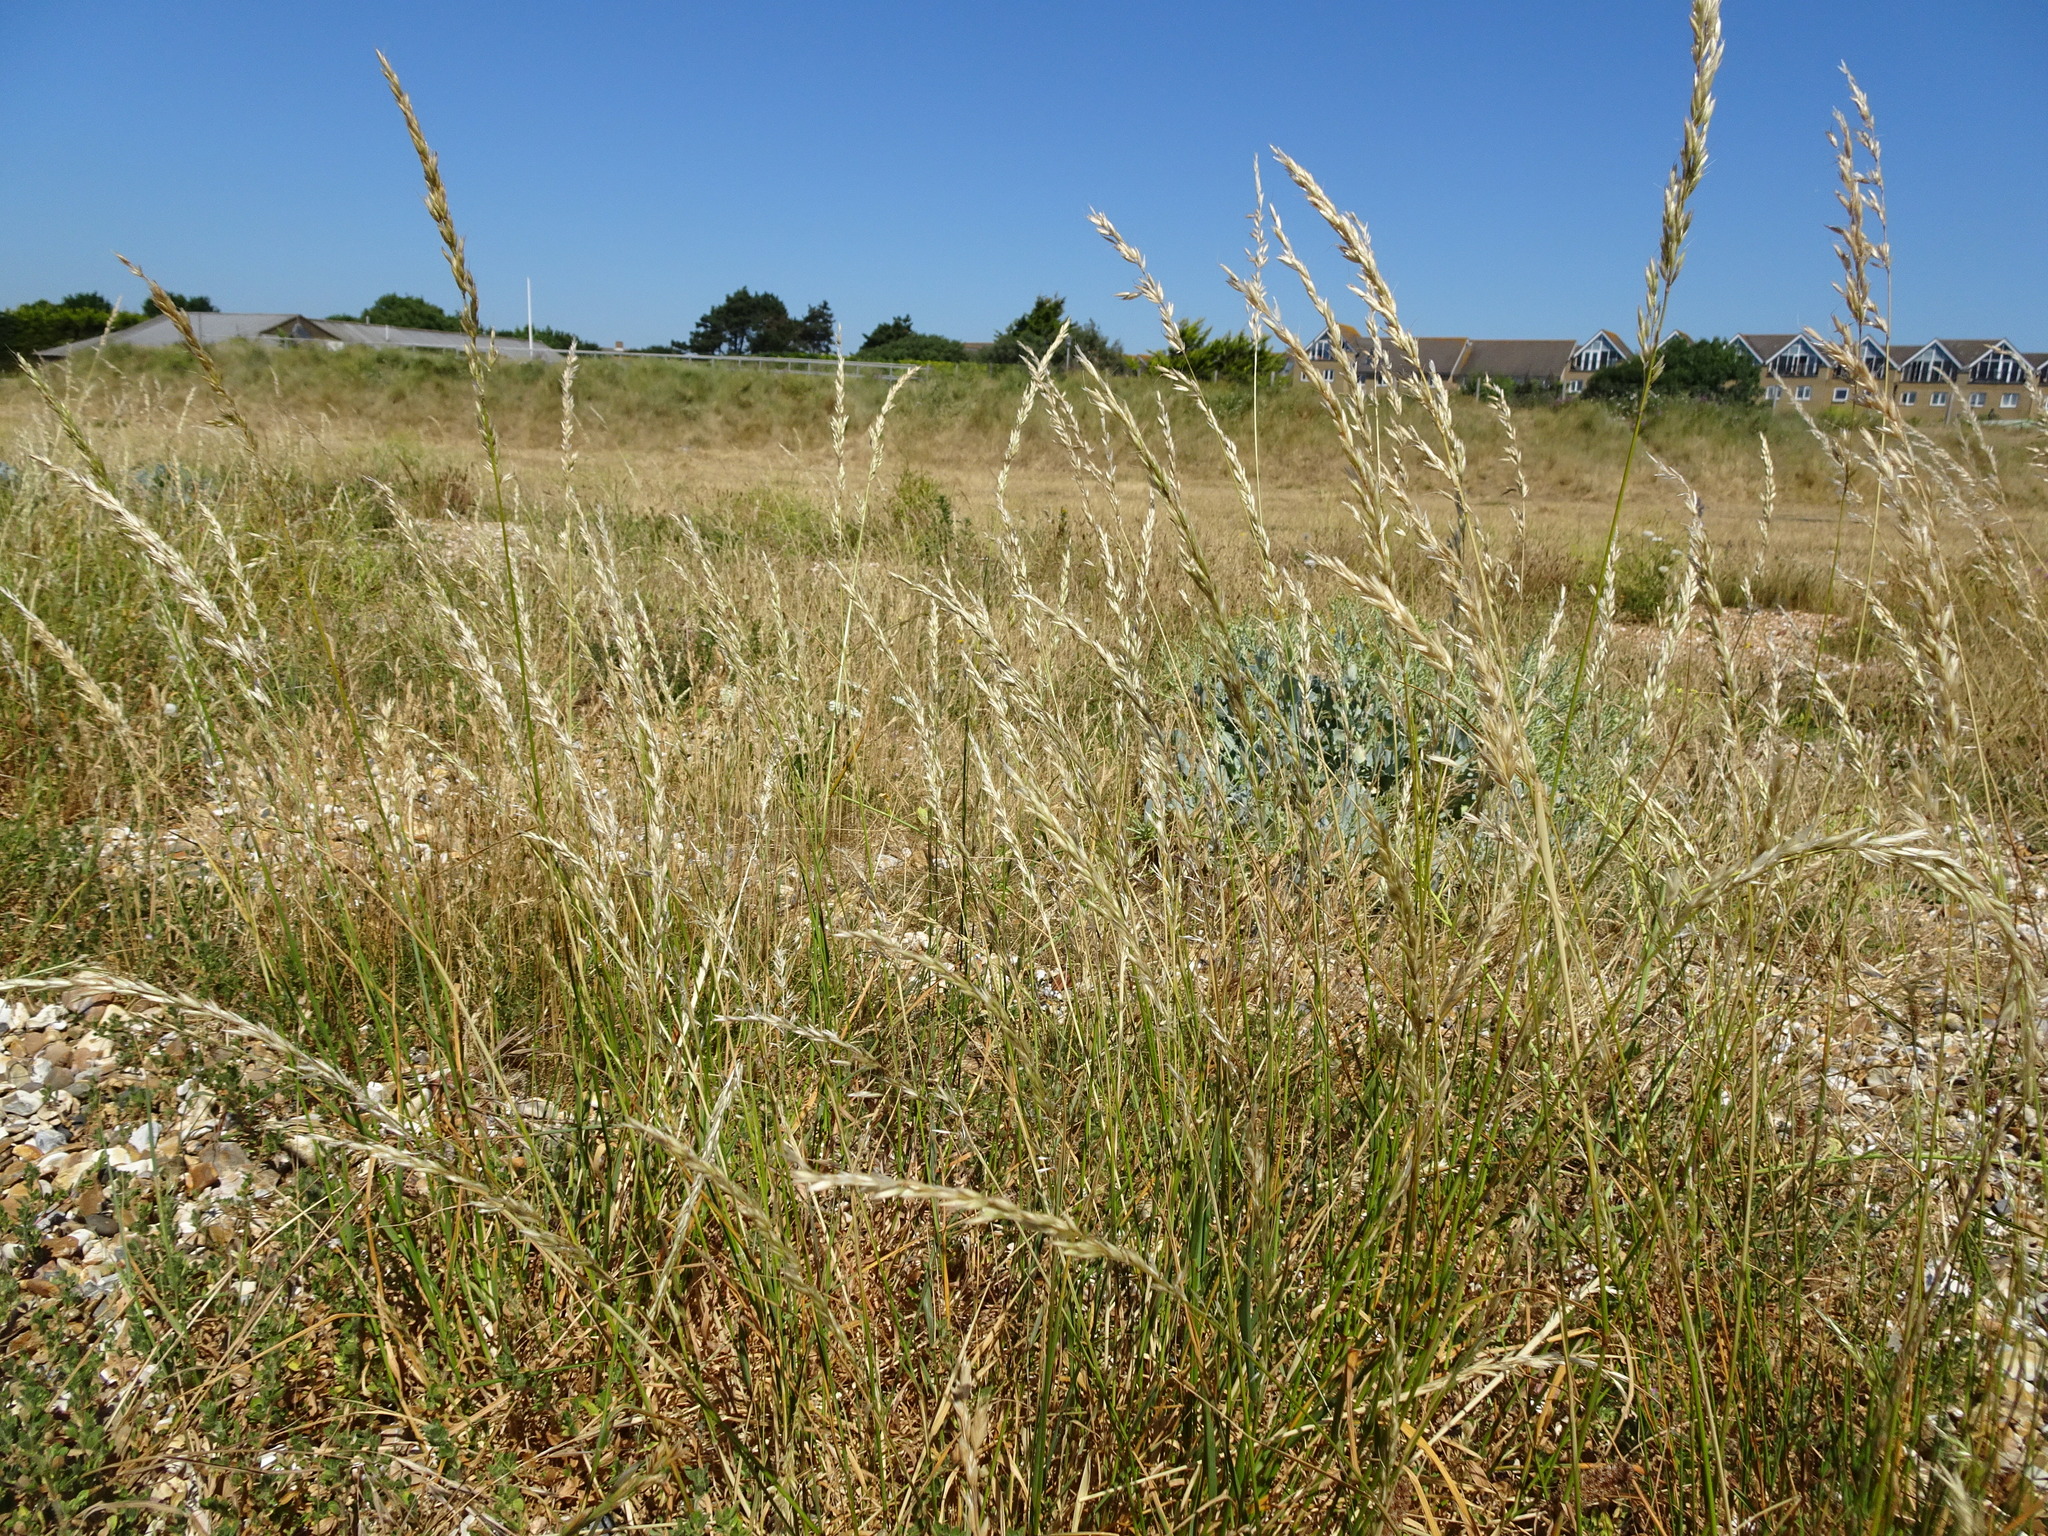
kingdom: Plantae
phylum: Tracheophyta
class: Liliopsida
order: Poales
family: Poaceae
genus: Arrhenatherum
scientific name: Arrhenatherum elatius
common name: Tall oatgrass
